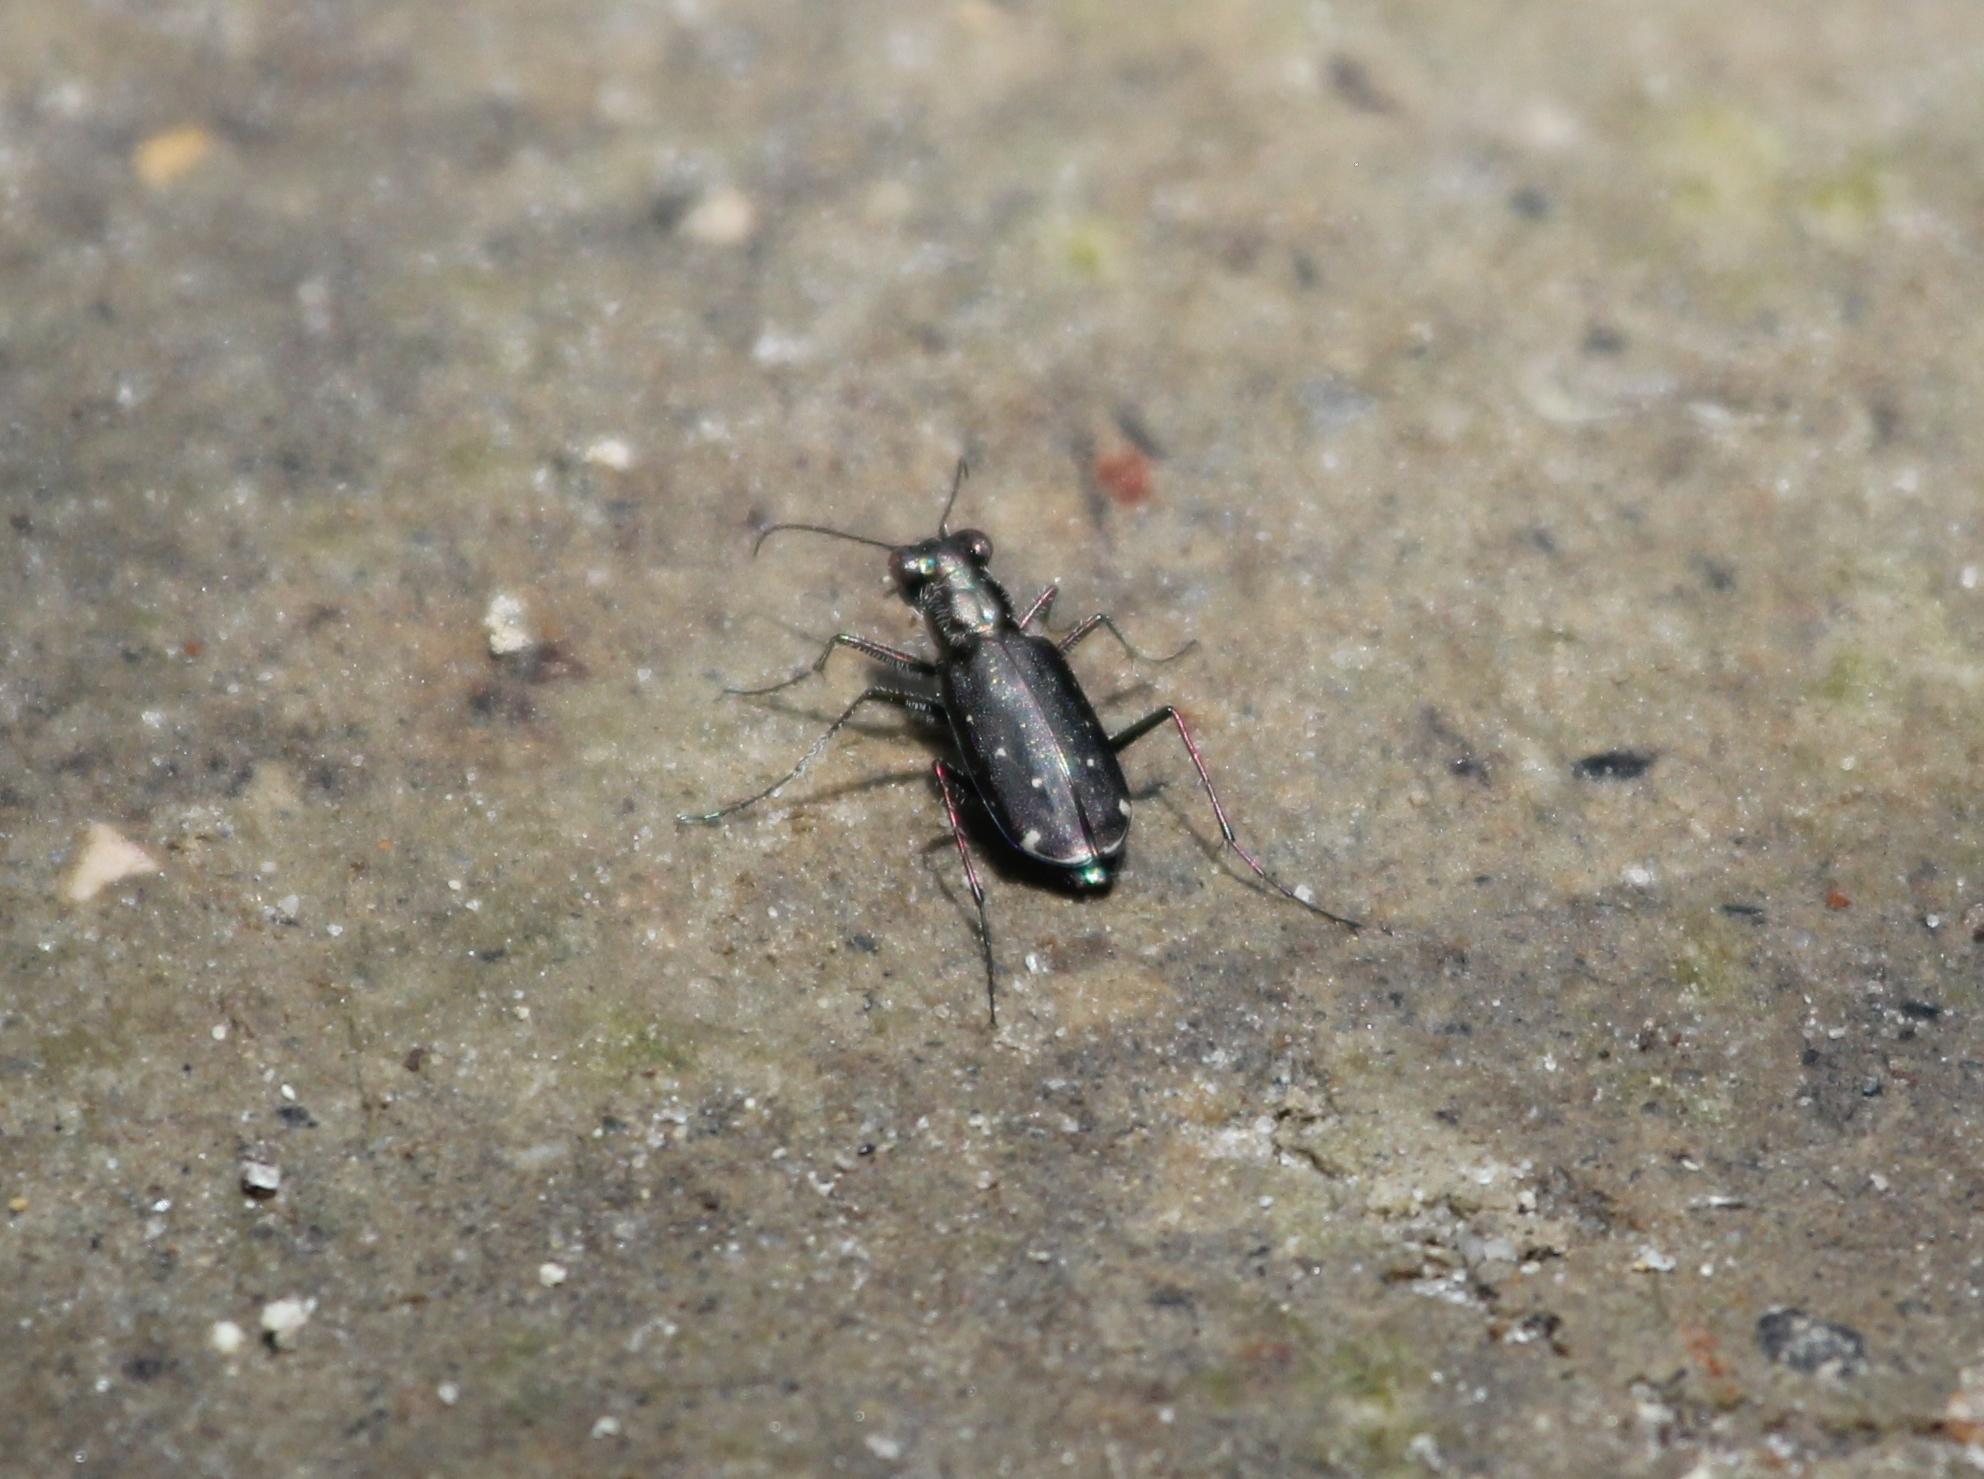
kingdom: Animalia
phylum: Arthropoda
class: Insecta
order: Coleoptera
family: Carabidae
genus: Cicindela
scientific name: Cicindela punctulata
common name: Punctured tiger beetle
